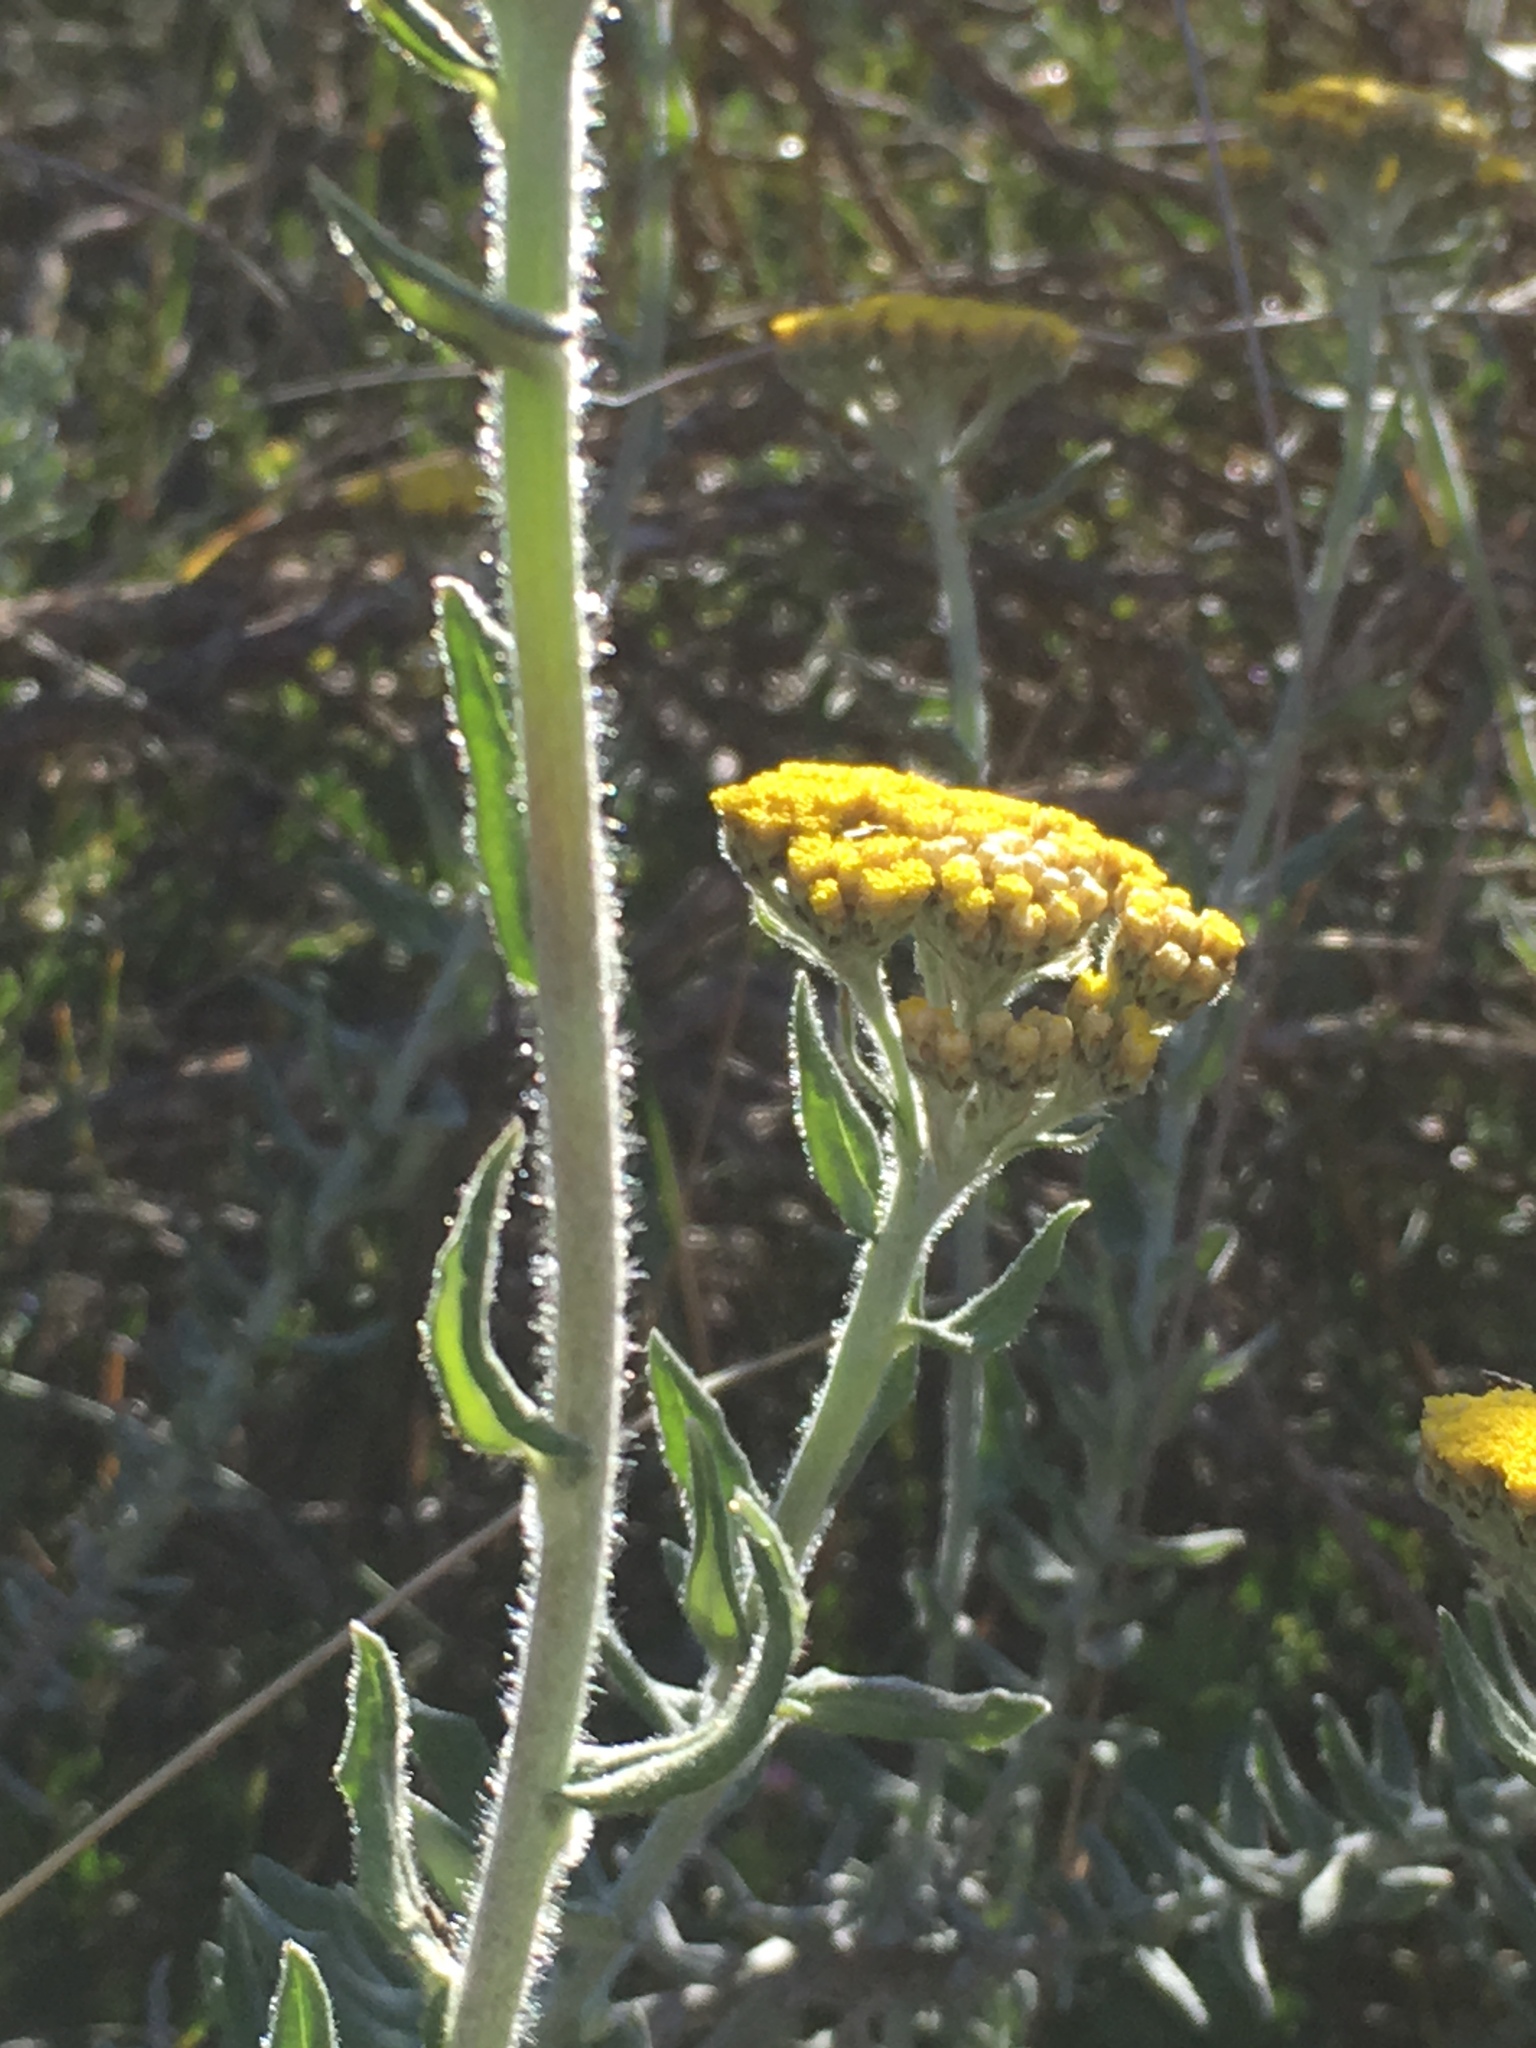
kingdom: Plantae
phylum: Tracheophyta
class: Magnoliopsida
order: Asterales
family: Asteraceae
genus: Helichrysum
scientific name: Helichrysum dasyanthum
